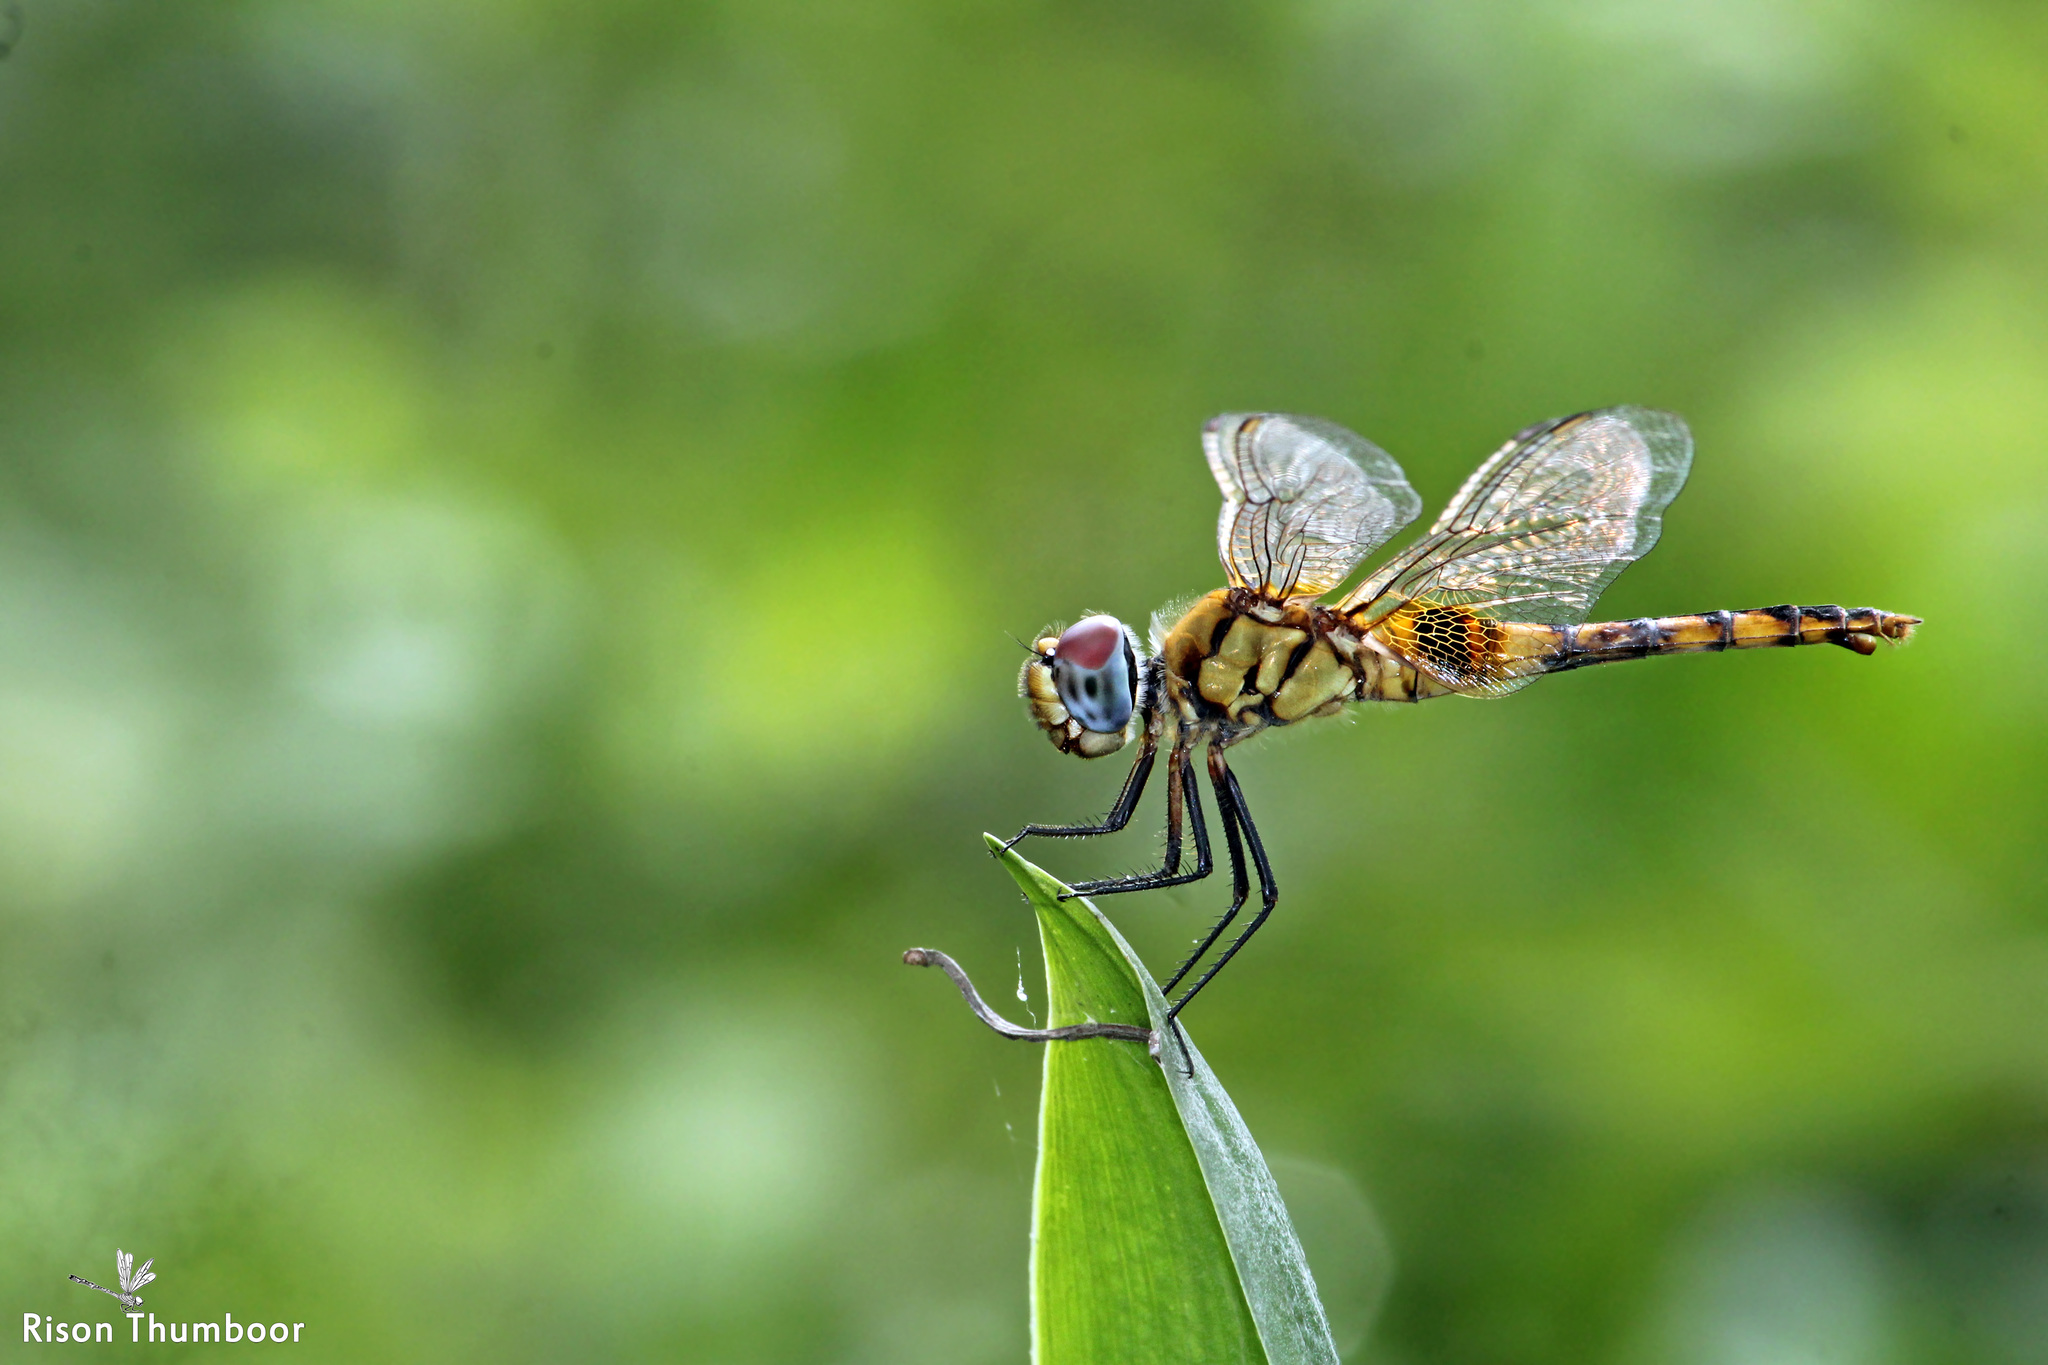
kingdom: Animalia
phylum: Arthropoda
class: Insecta
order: Odonata
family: Libellulidae
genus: Urothemis
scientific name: Urothemis signata
